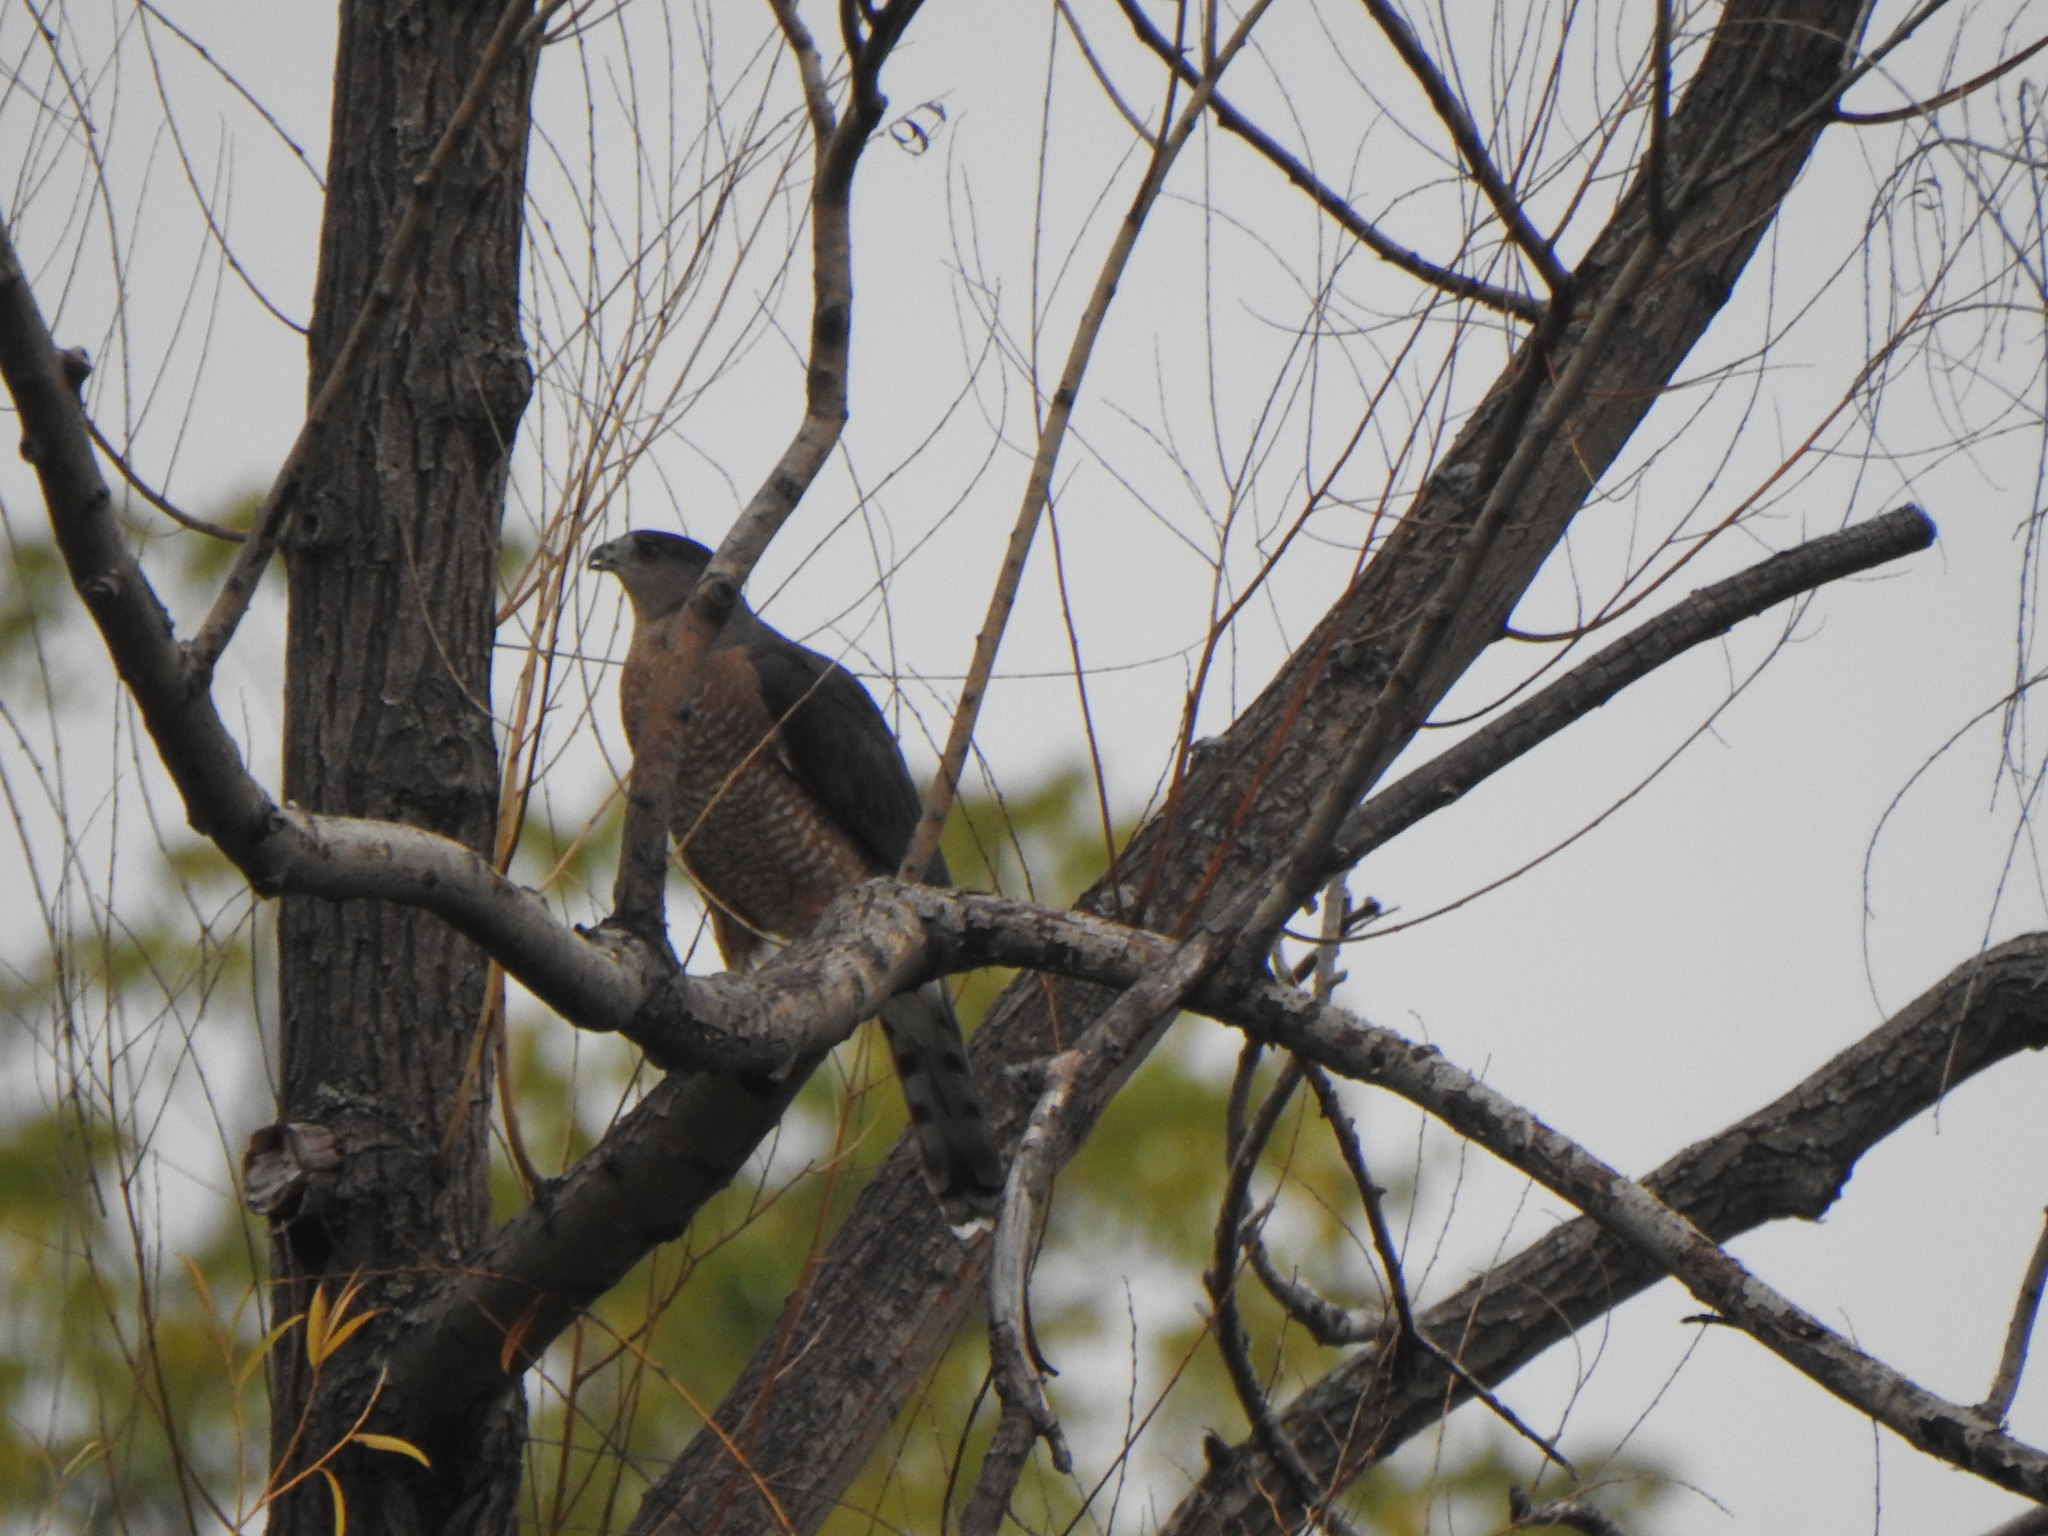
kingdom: Animalia
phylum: Chordata
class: Aves
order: Accipitriformes
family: Accipitridae
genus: Accipiter
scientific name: Accipiter cooperii
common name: Cooper's hawk
